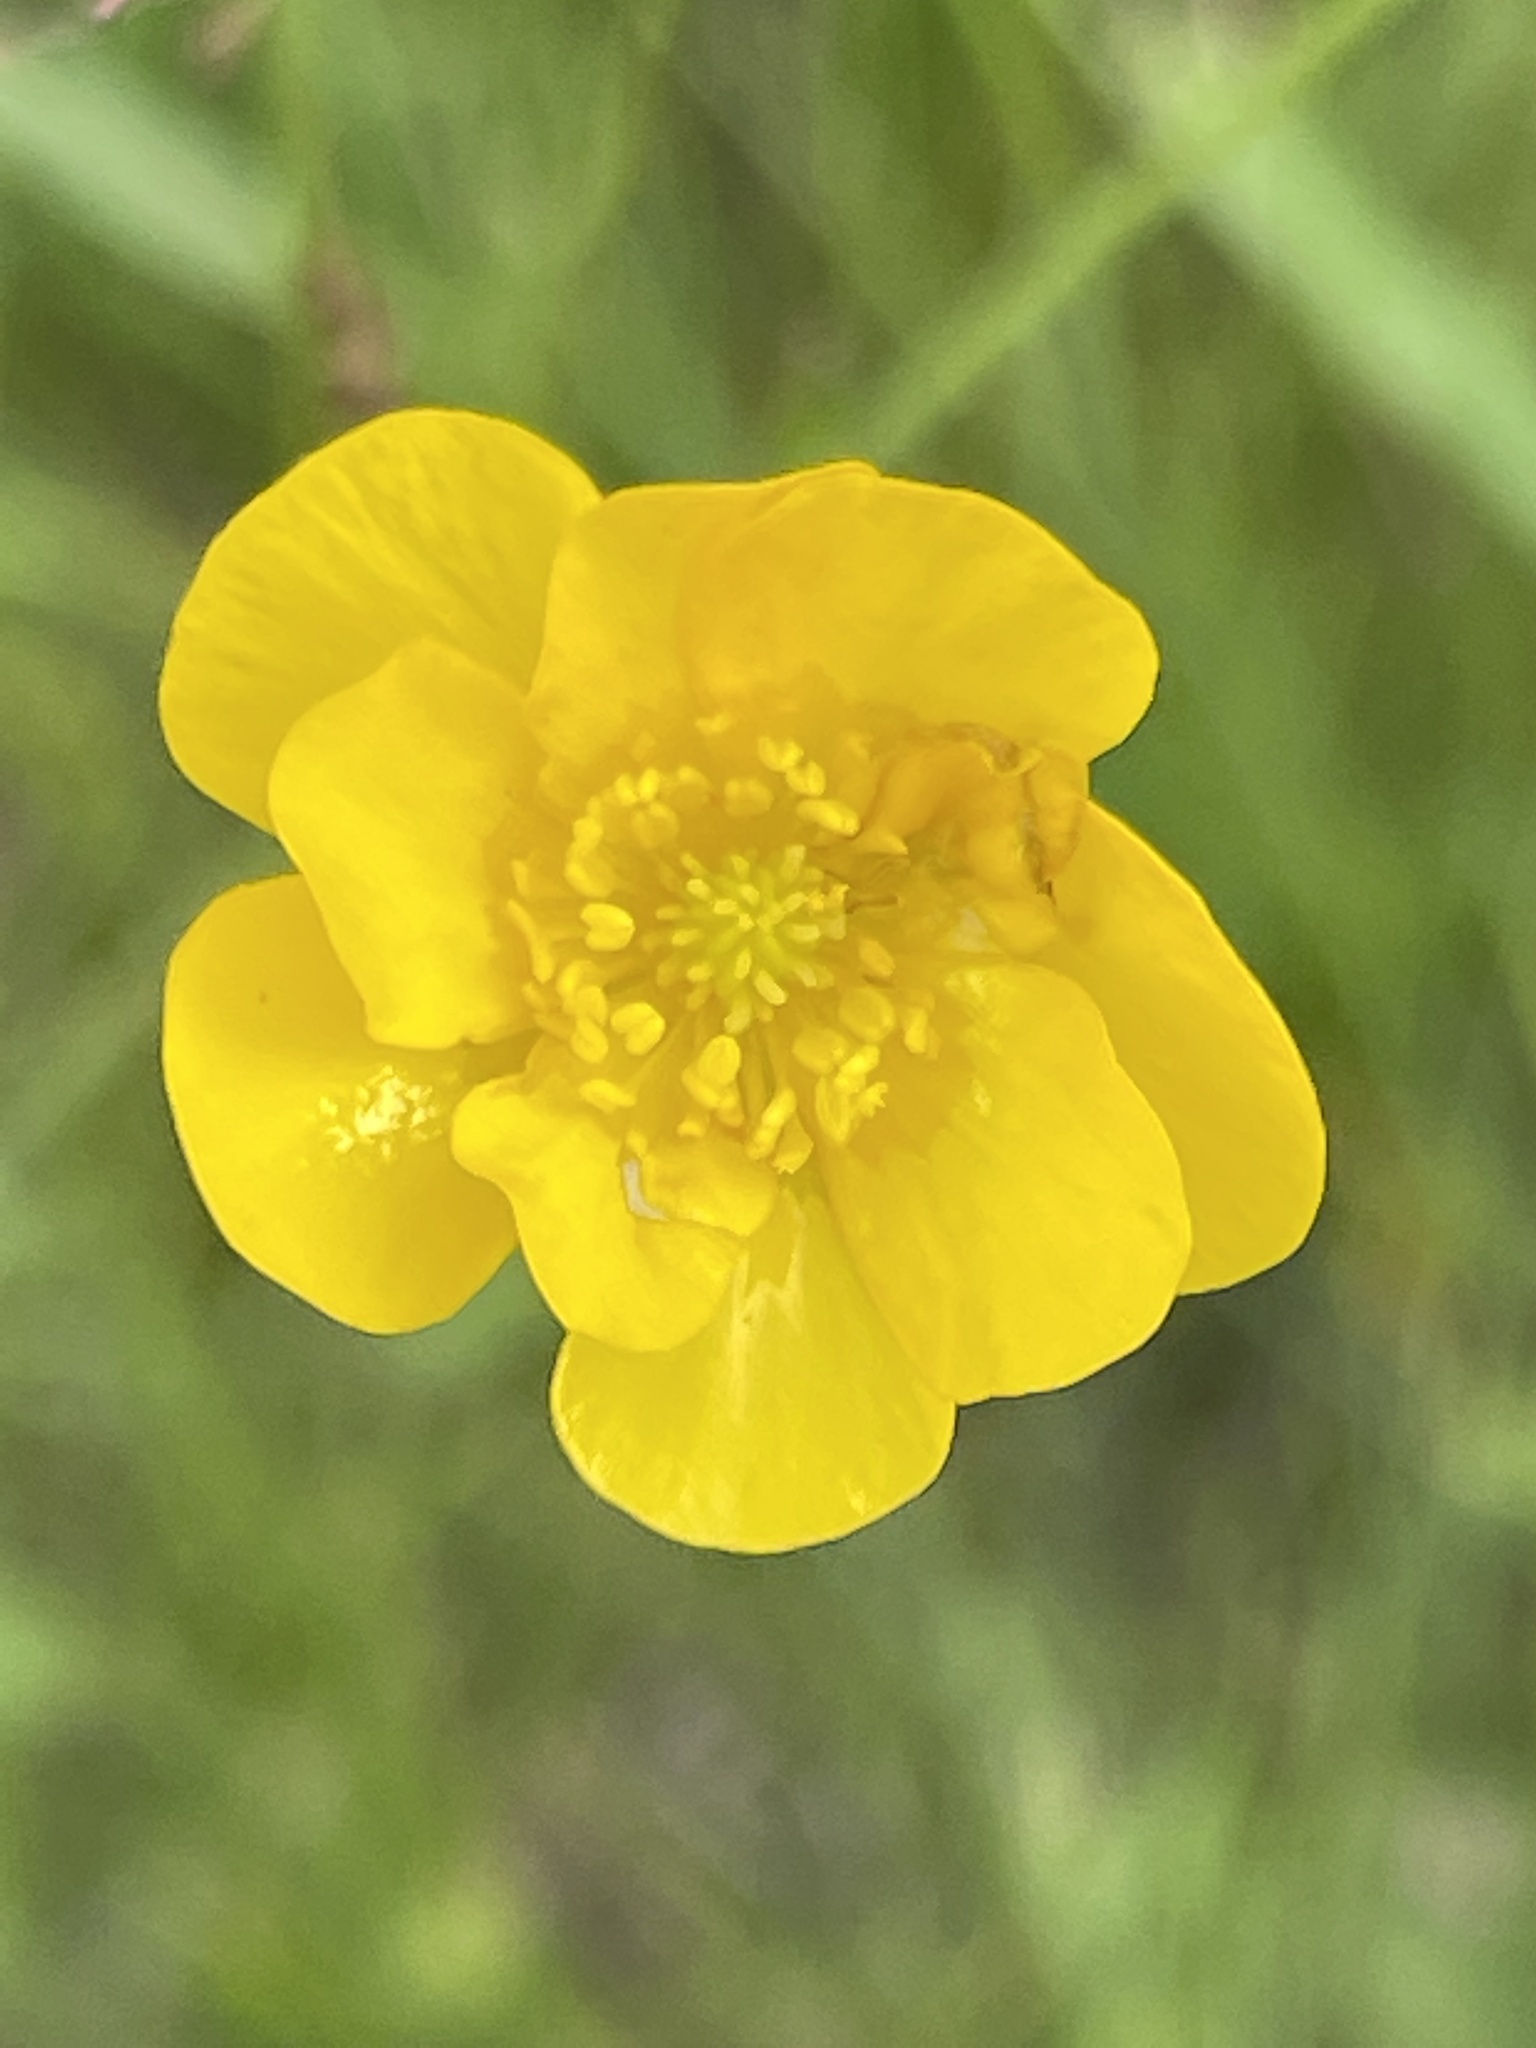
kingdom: Plantae
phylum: Tracheophyta
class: Magnoliopsida
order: Ranunculales
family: Ranunculaceae
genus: Ranunculus
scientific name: Ranunculus acris
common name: Meadow buttercup
